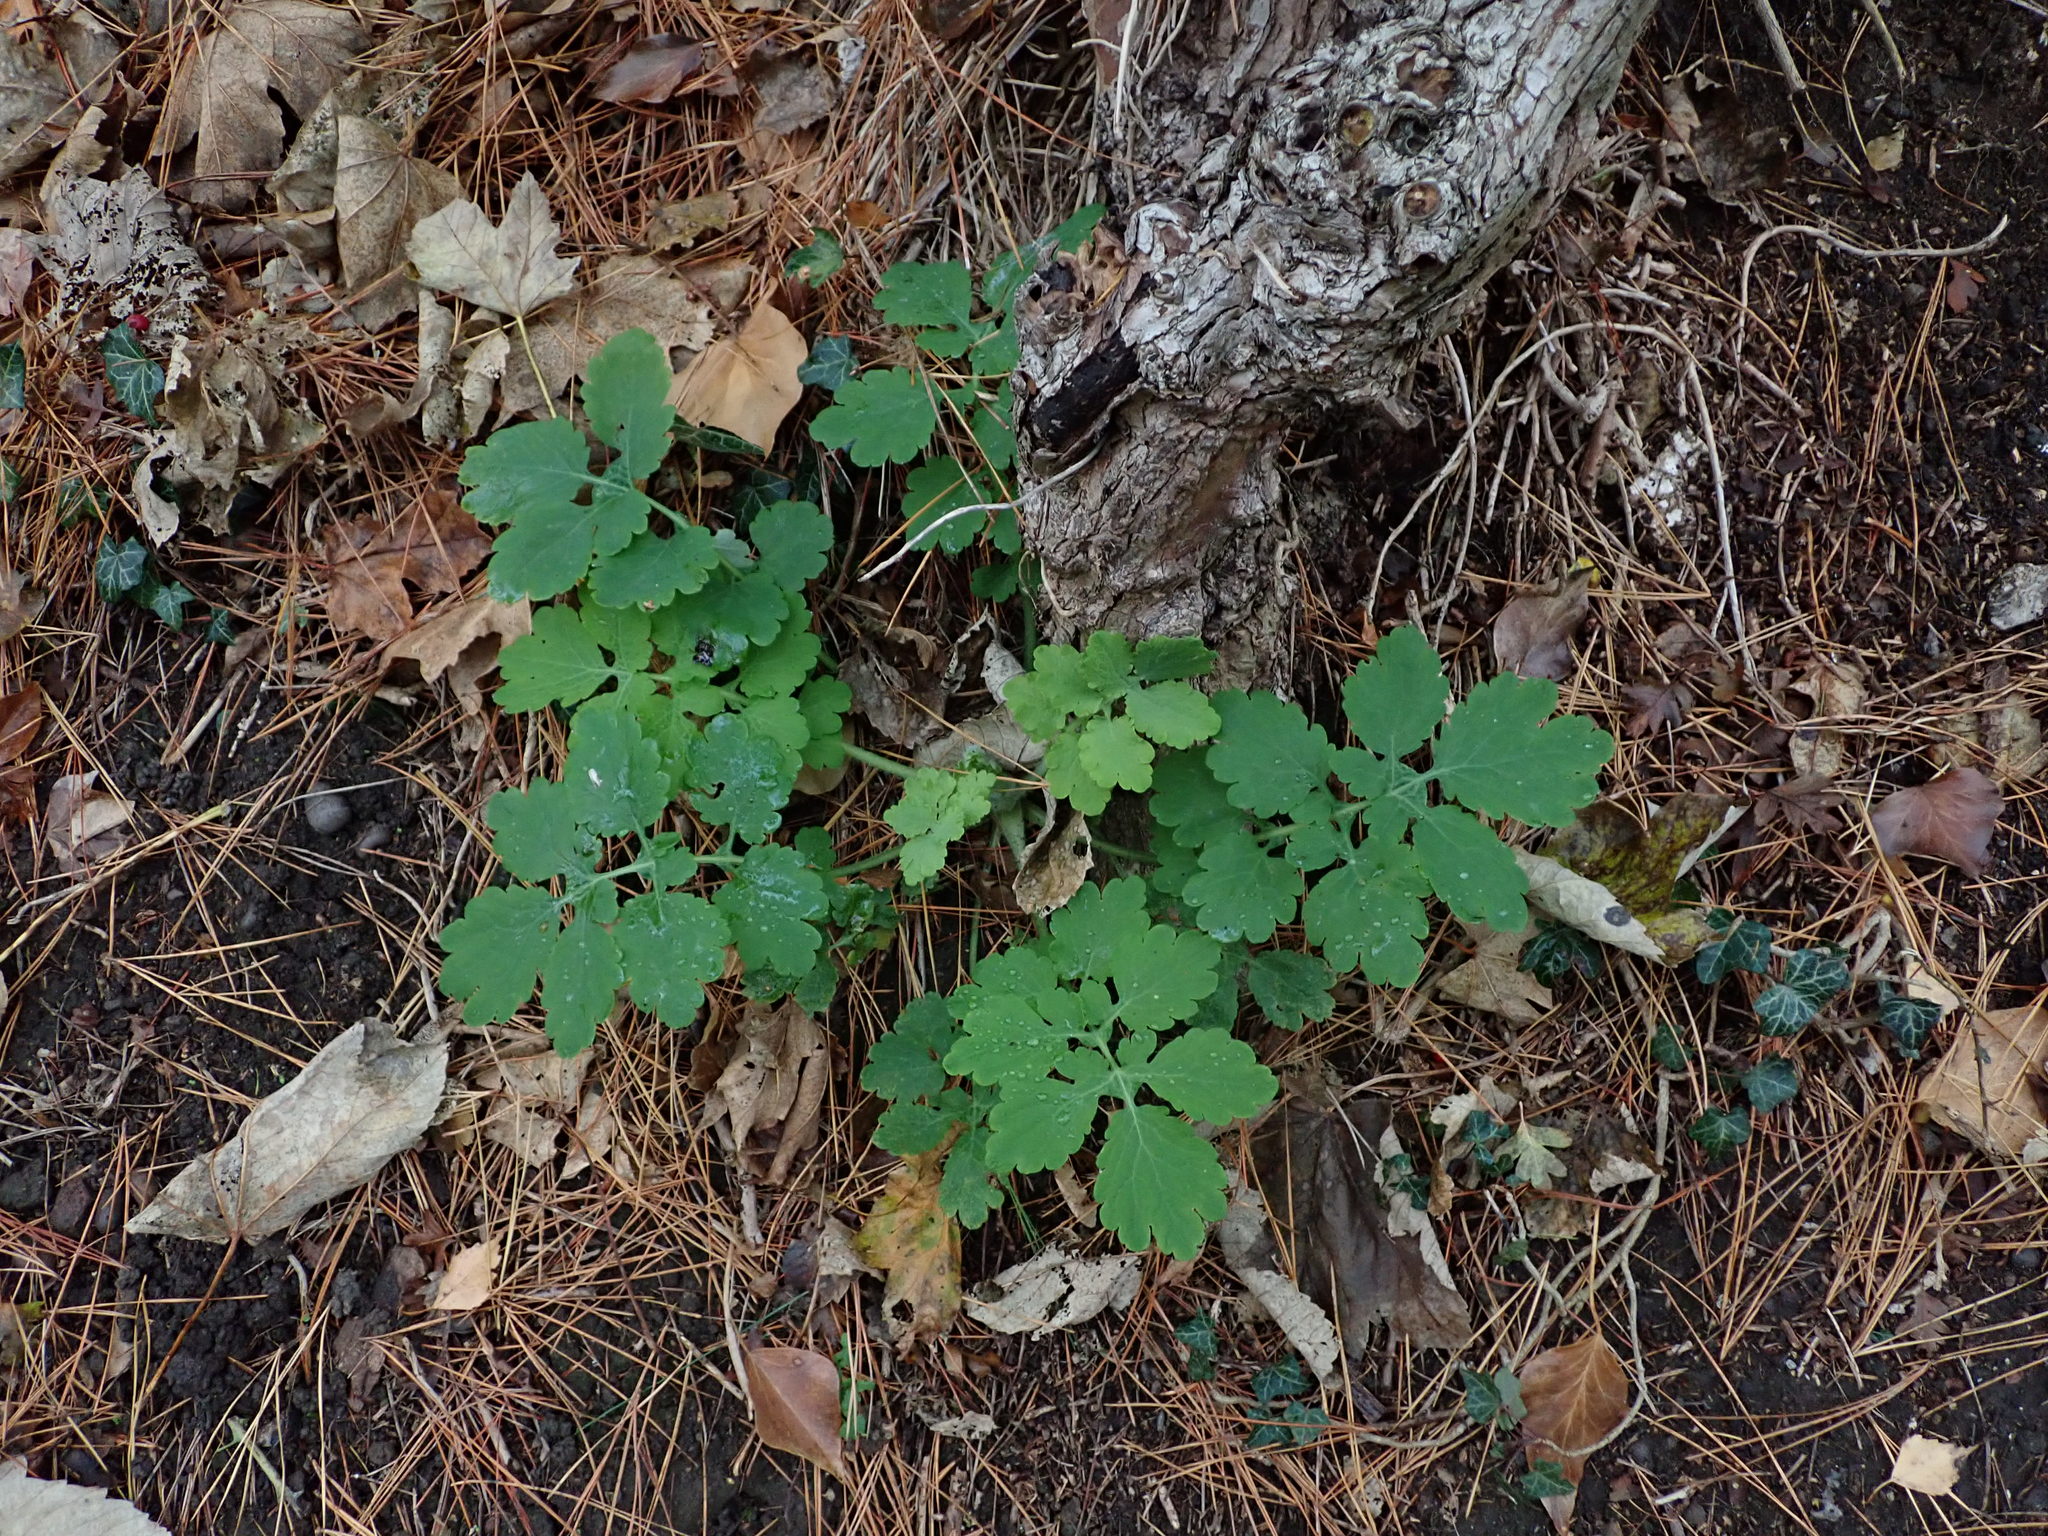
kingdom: Plantae
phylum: Tracheophyta
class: Magnoliopsida
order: Ranunculales
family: Papaveraceae
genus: Chelidonium
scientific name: Chelidonium majus
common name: Greater celandine
